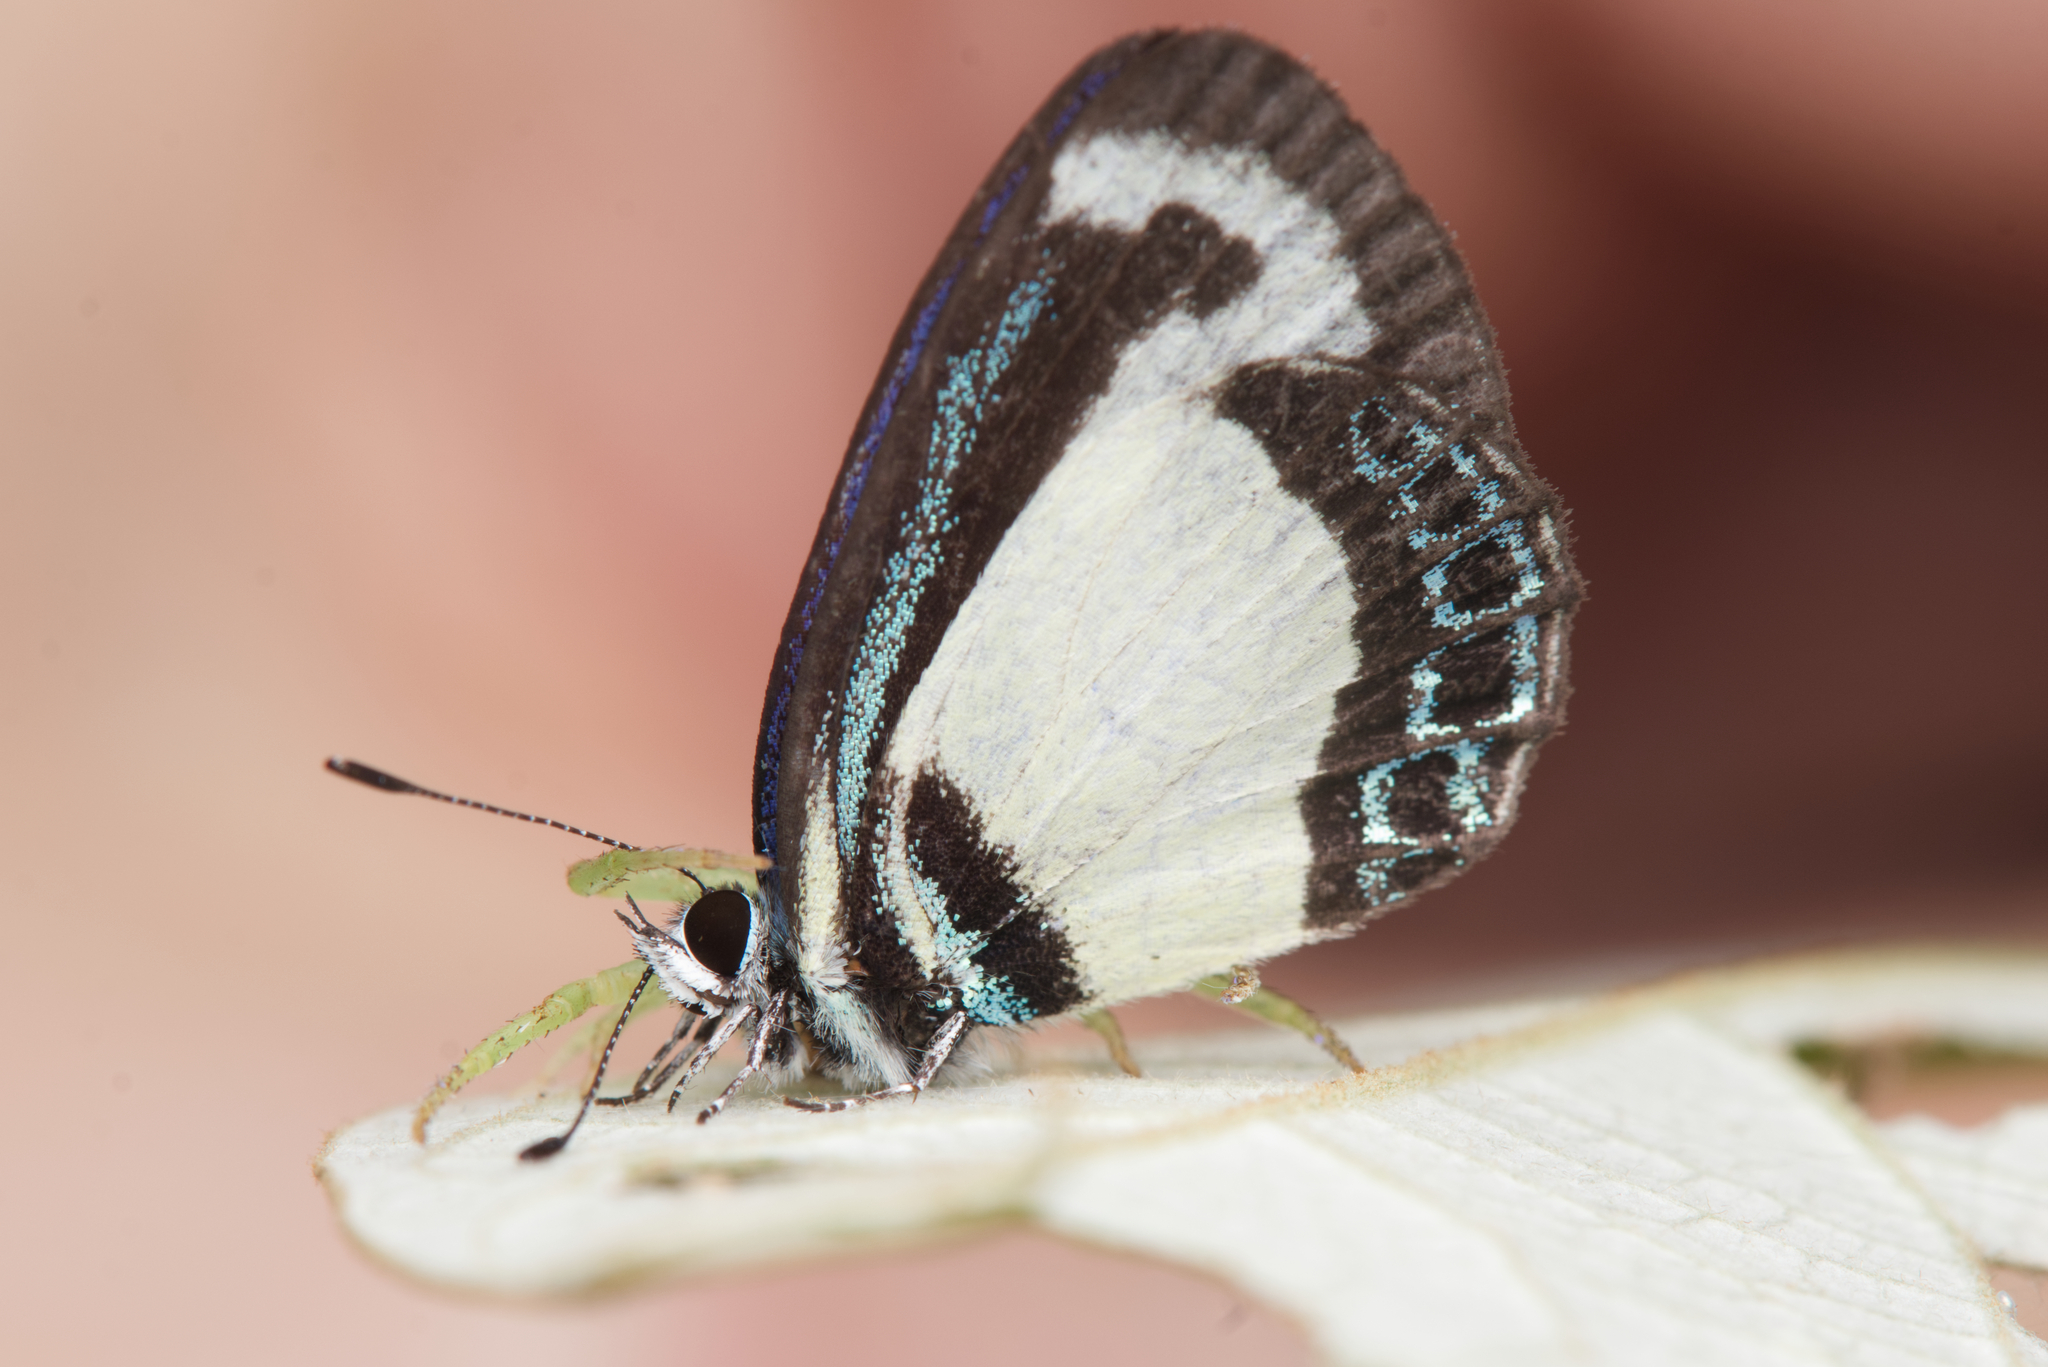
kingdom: Animalia
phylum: Arthropoda
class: Insecta
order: Lepidoptera
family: Lycaenidae
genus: Psychonotis
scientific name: Psychonotis caelius
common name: Small green banded blue
